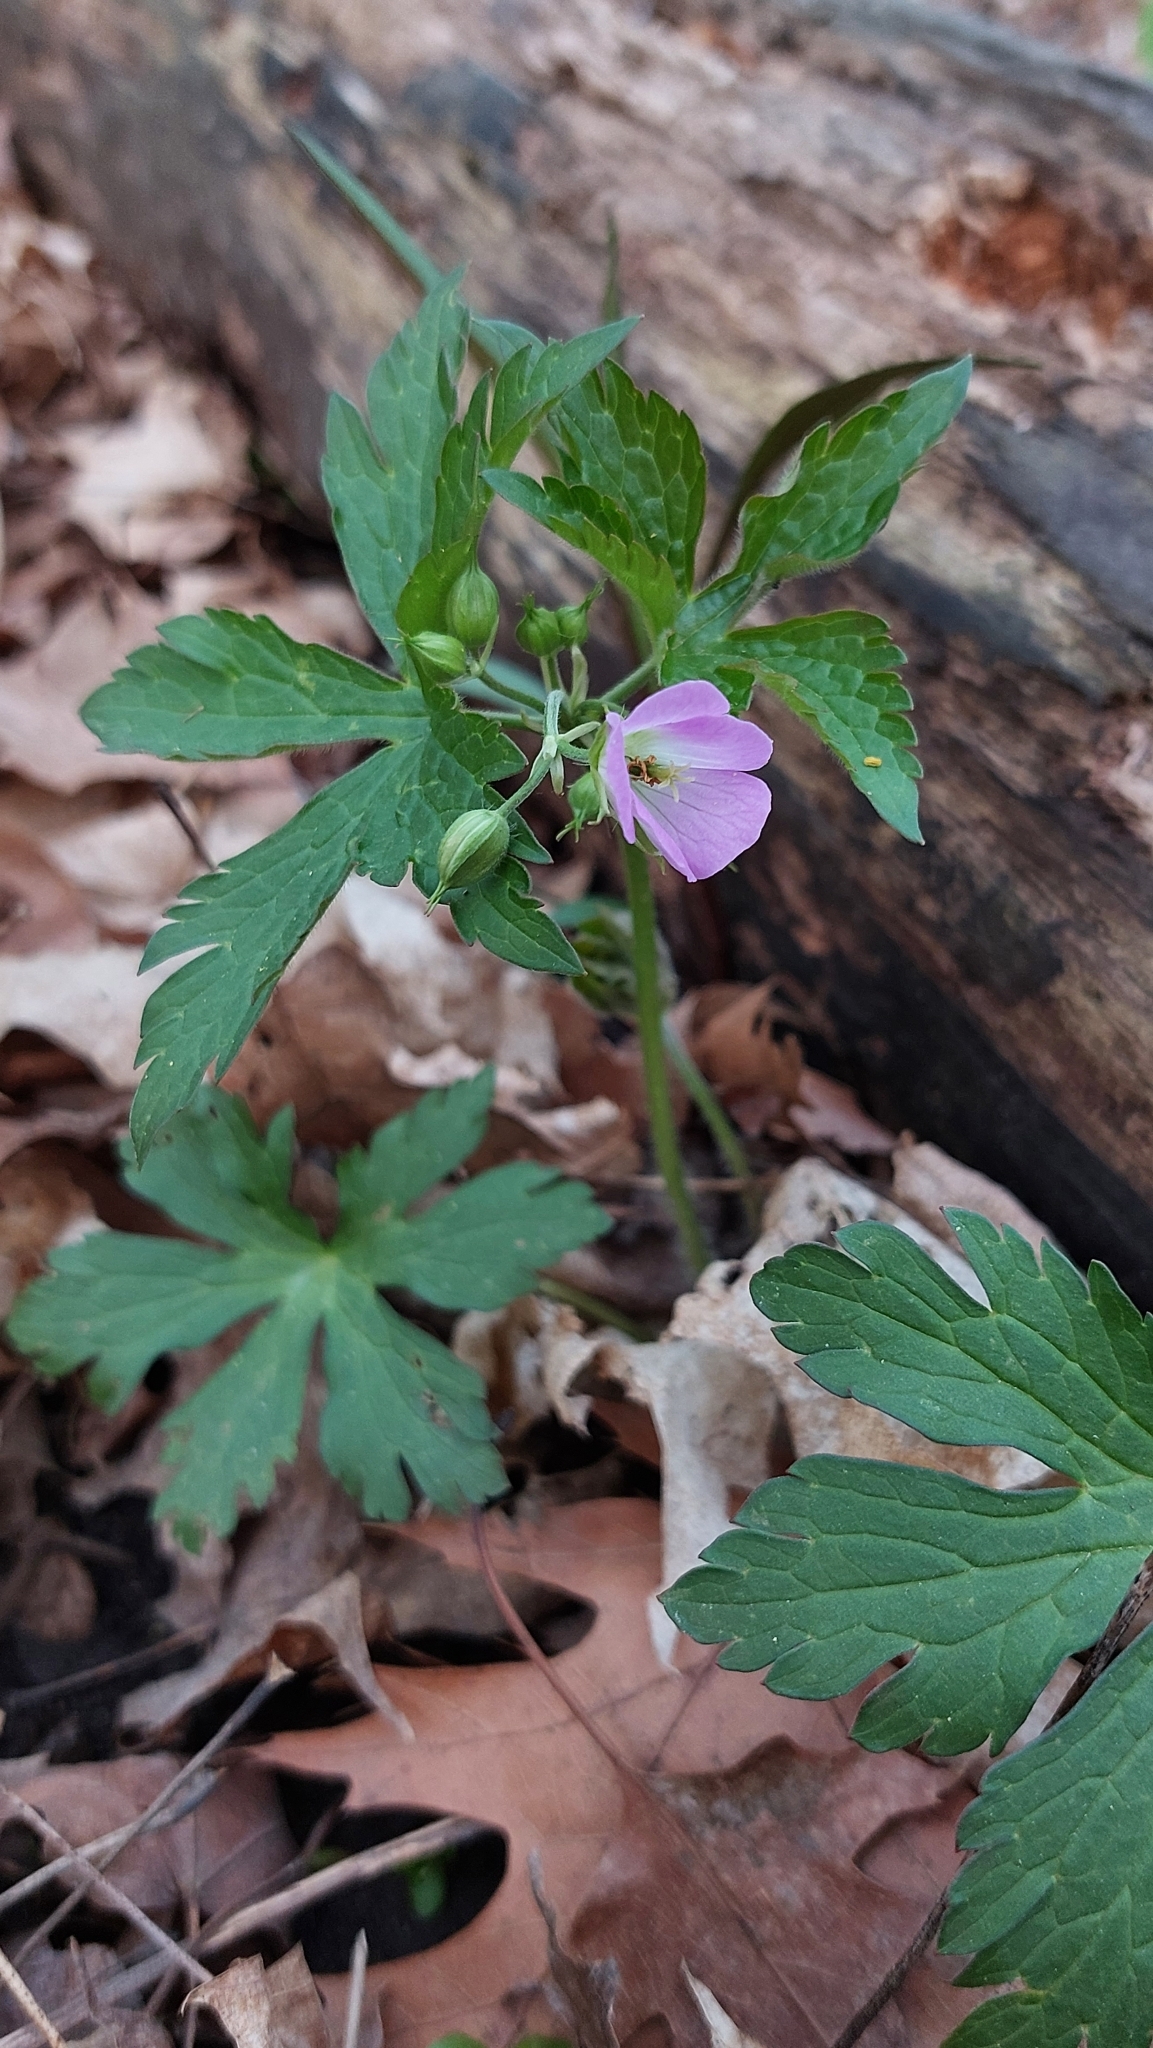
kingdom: Plantae
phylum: Tracheophyta
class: Magnoliopsida
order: Geraniales
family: Geraniaceae
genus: Geranium
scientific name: Geranium maculatum
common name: Spotted geranium
